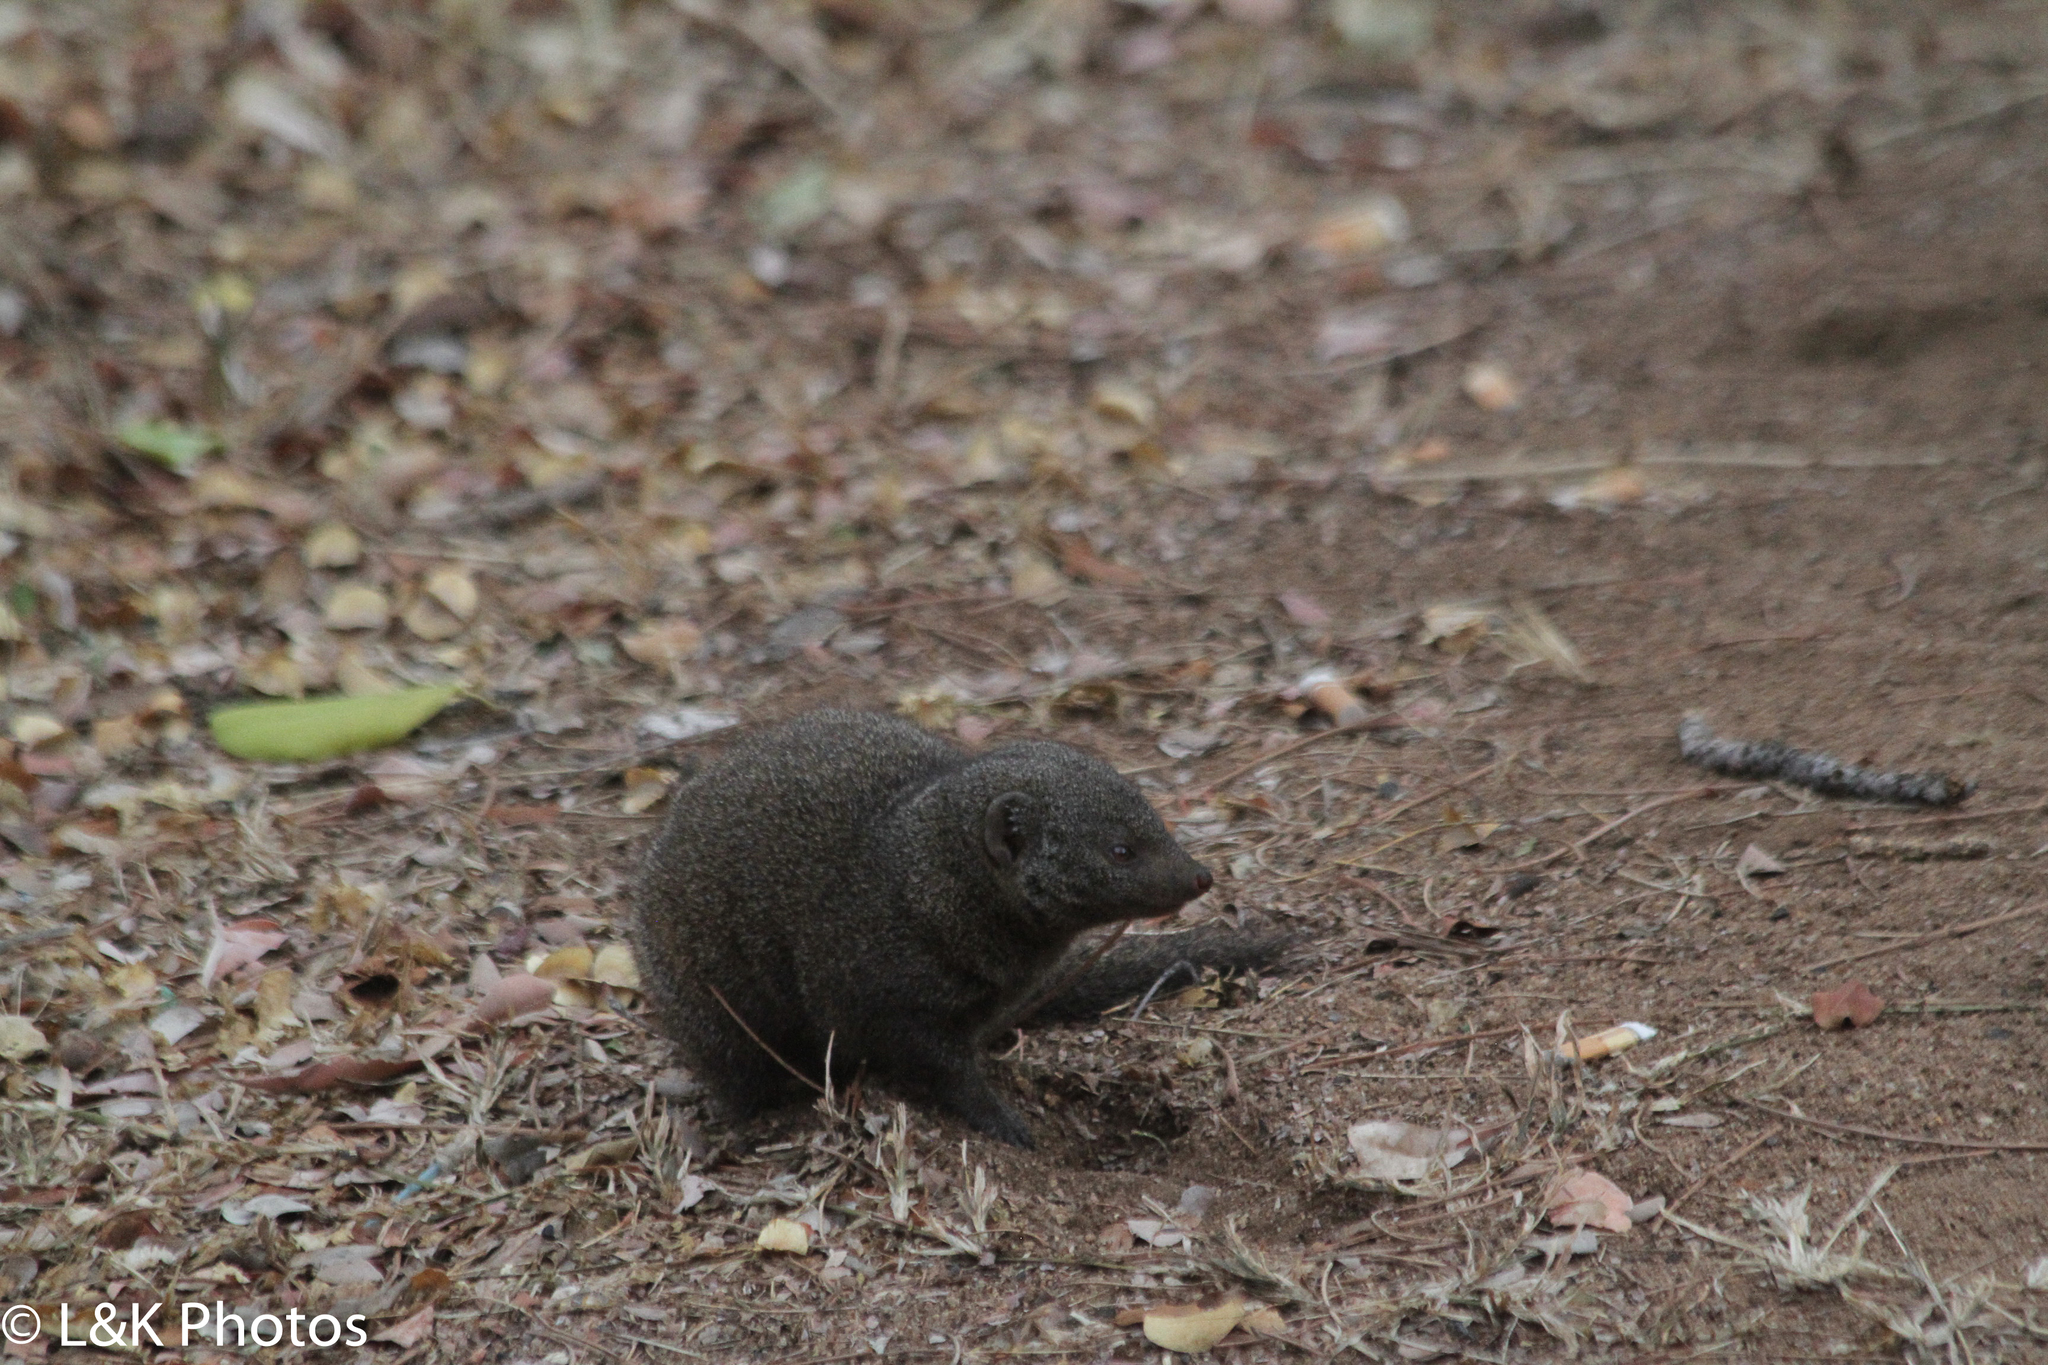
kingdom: Animalia
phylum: Chordata
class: Mammalia
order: Carnivora
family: Herpestidae
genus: Helogale
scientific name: Helogale parvula
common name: Common dwarf mongoose
